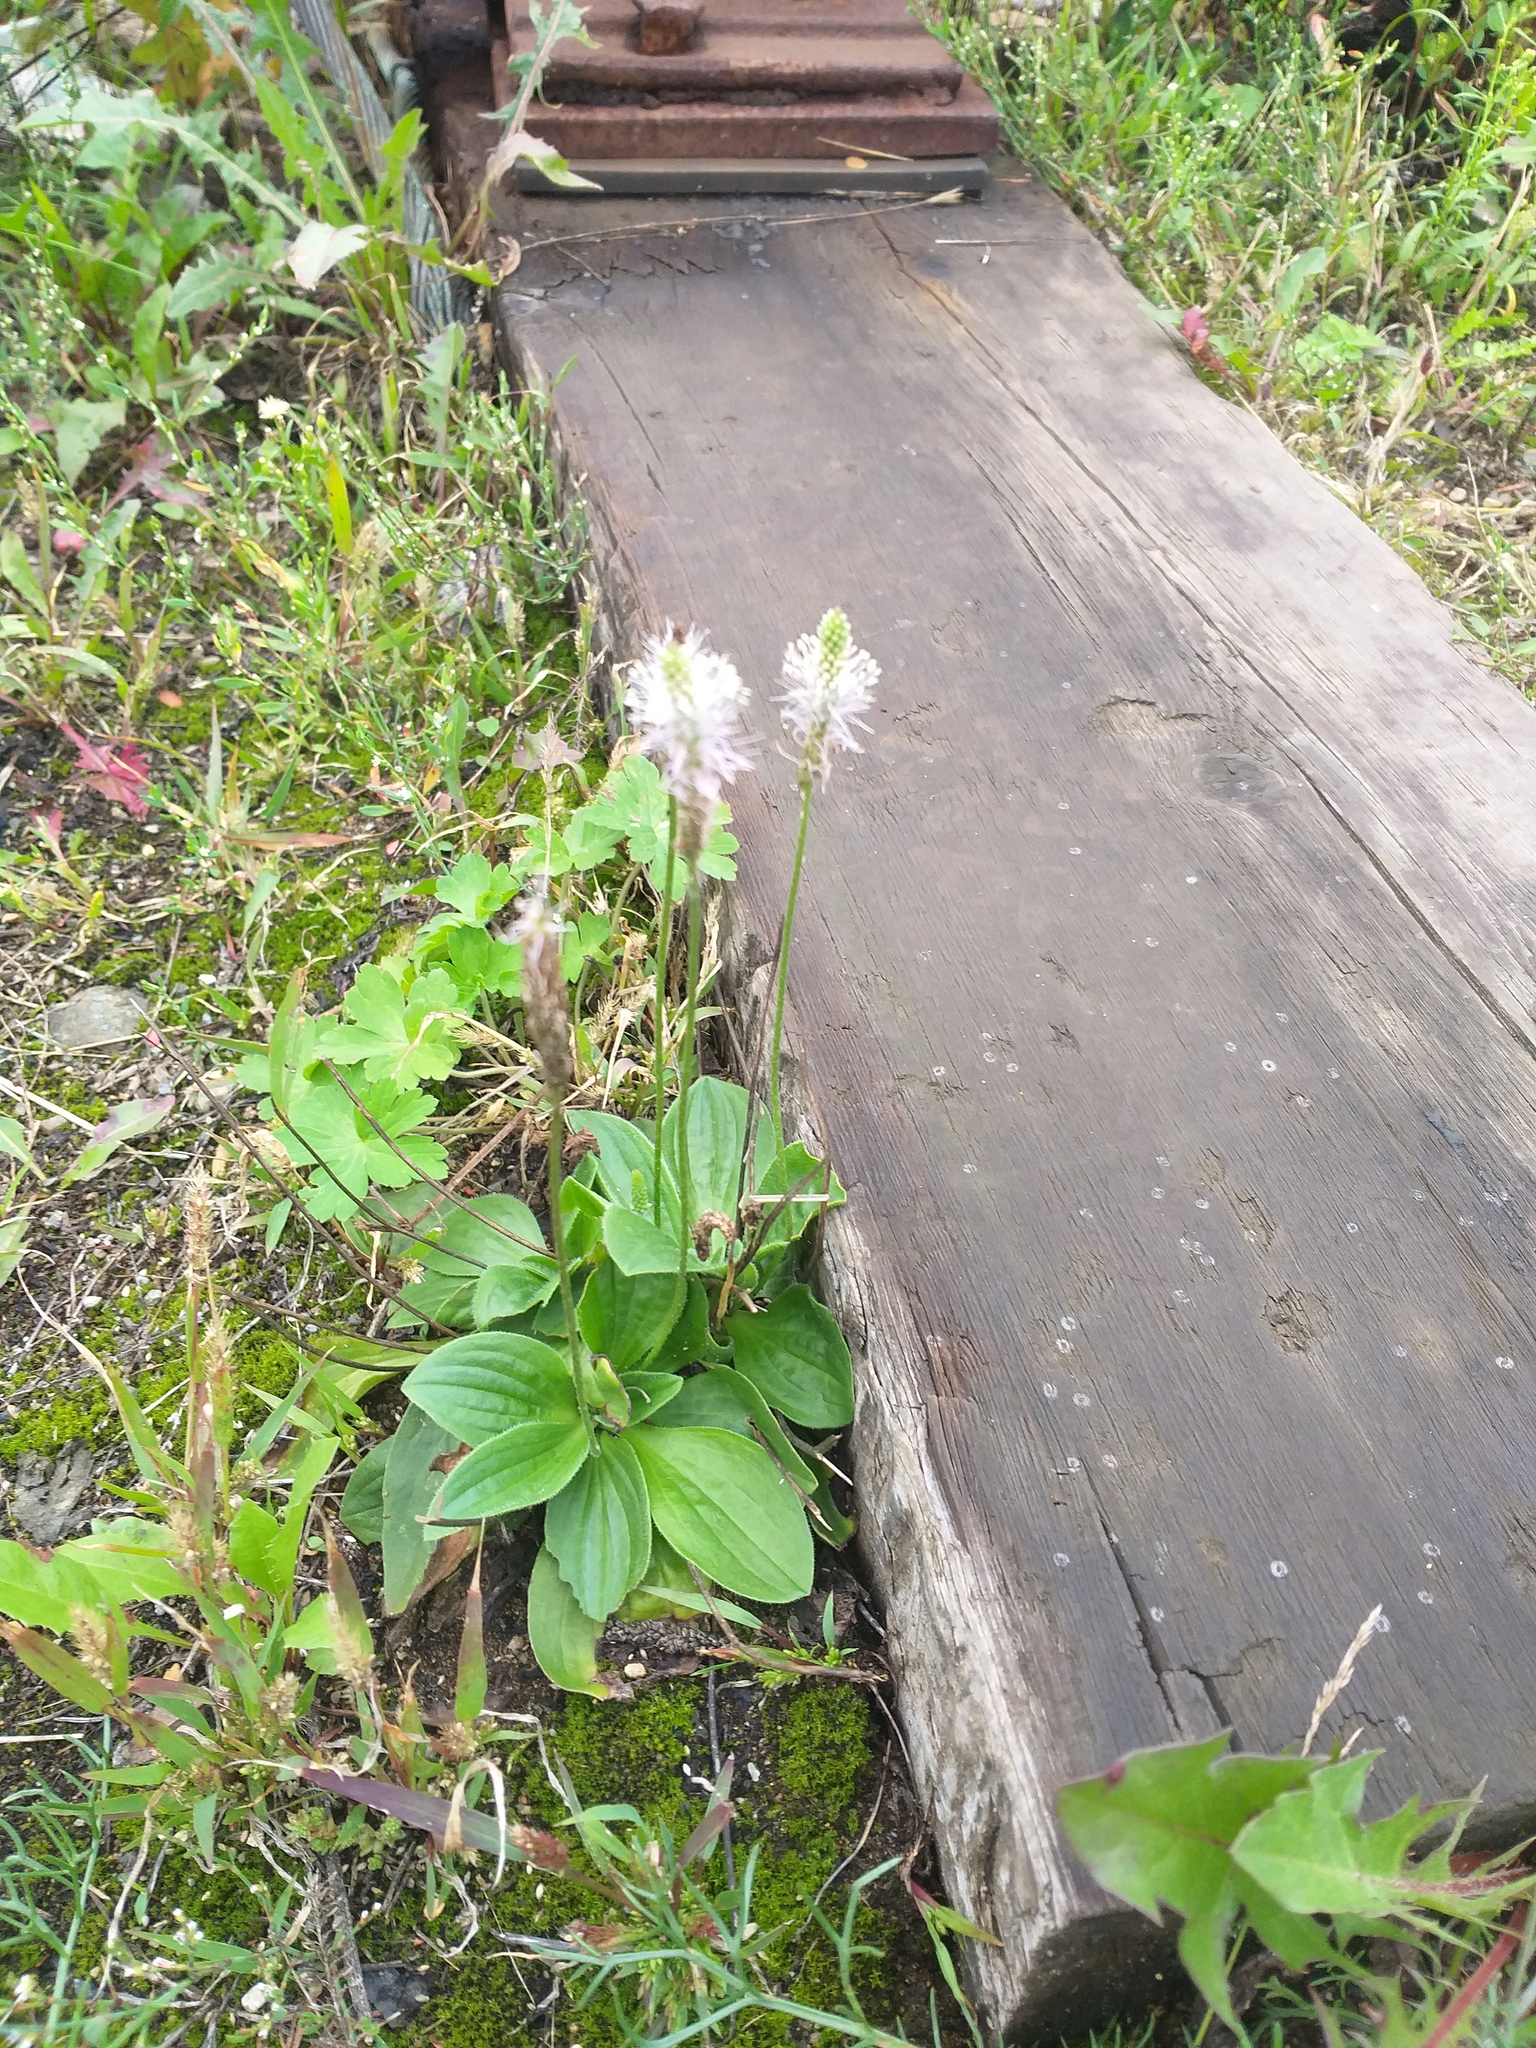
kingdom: Plantae
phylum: Tracheophyta
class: Magnoliopsida
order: Lamiales
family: Plantaginaceae
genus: Plantago
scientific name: Plantago media
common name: Hoary plantain
